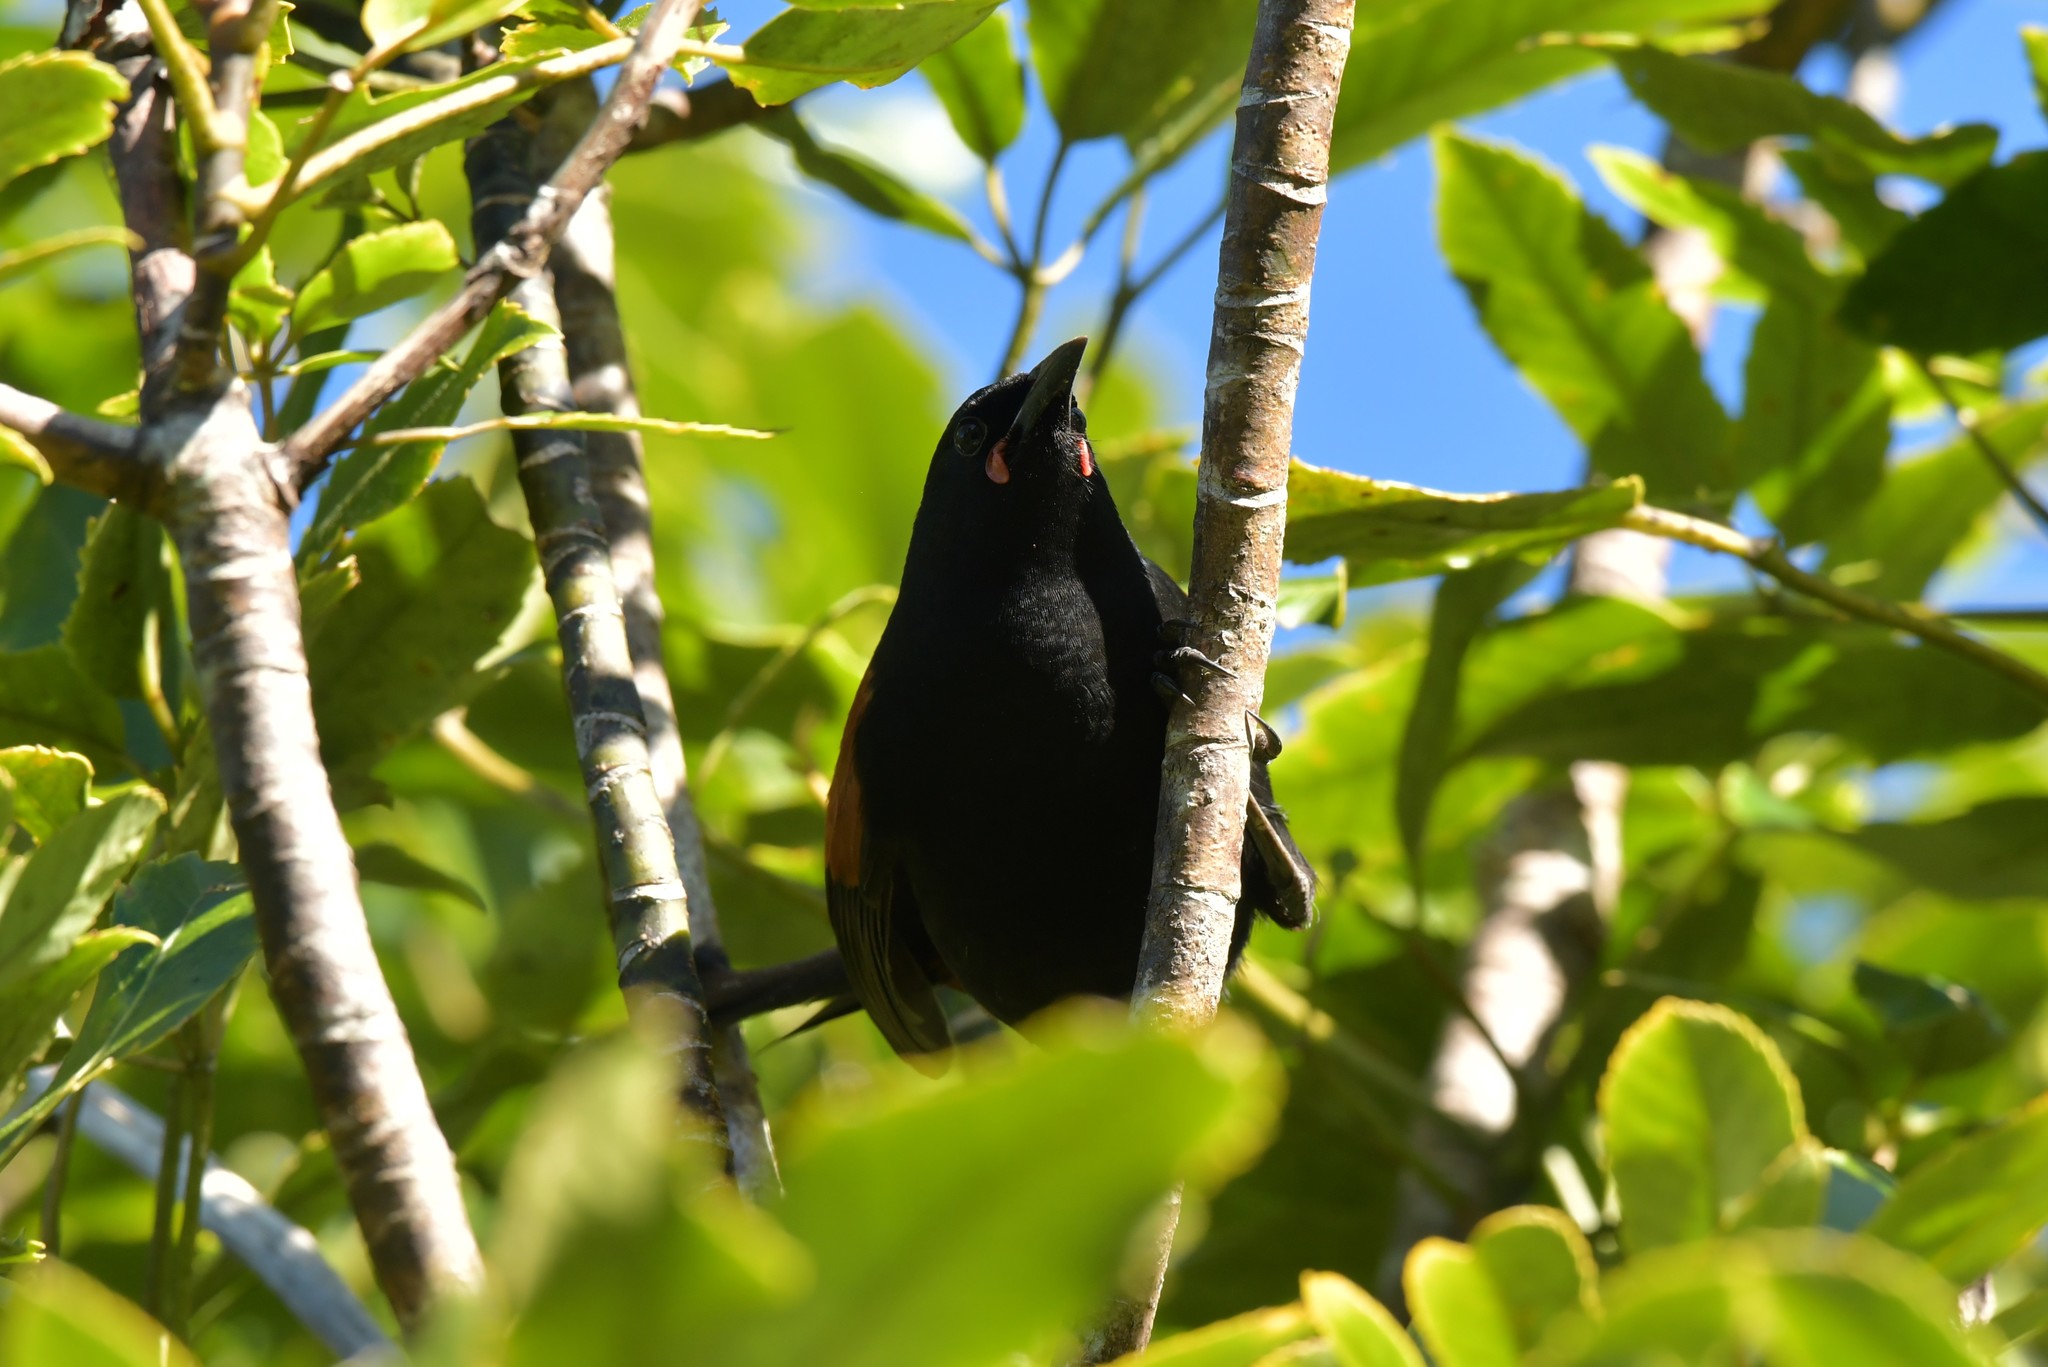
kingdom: Animalia
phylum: Chordata
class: Aves
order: Passeriformes
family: Callaeatidae
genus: Philesturnus
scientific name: Philesturnus carunculatus
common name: South island saddleback
